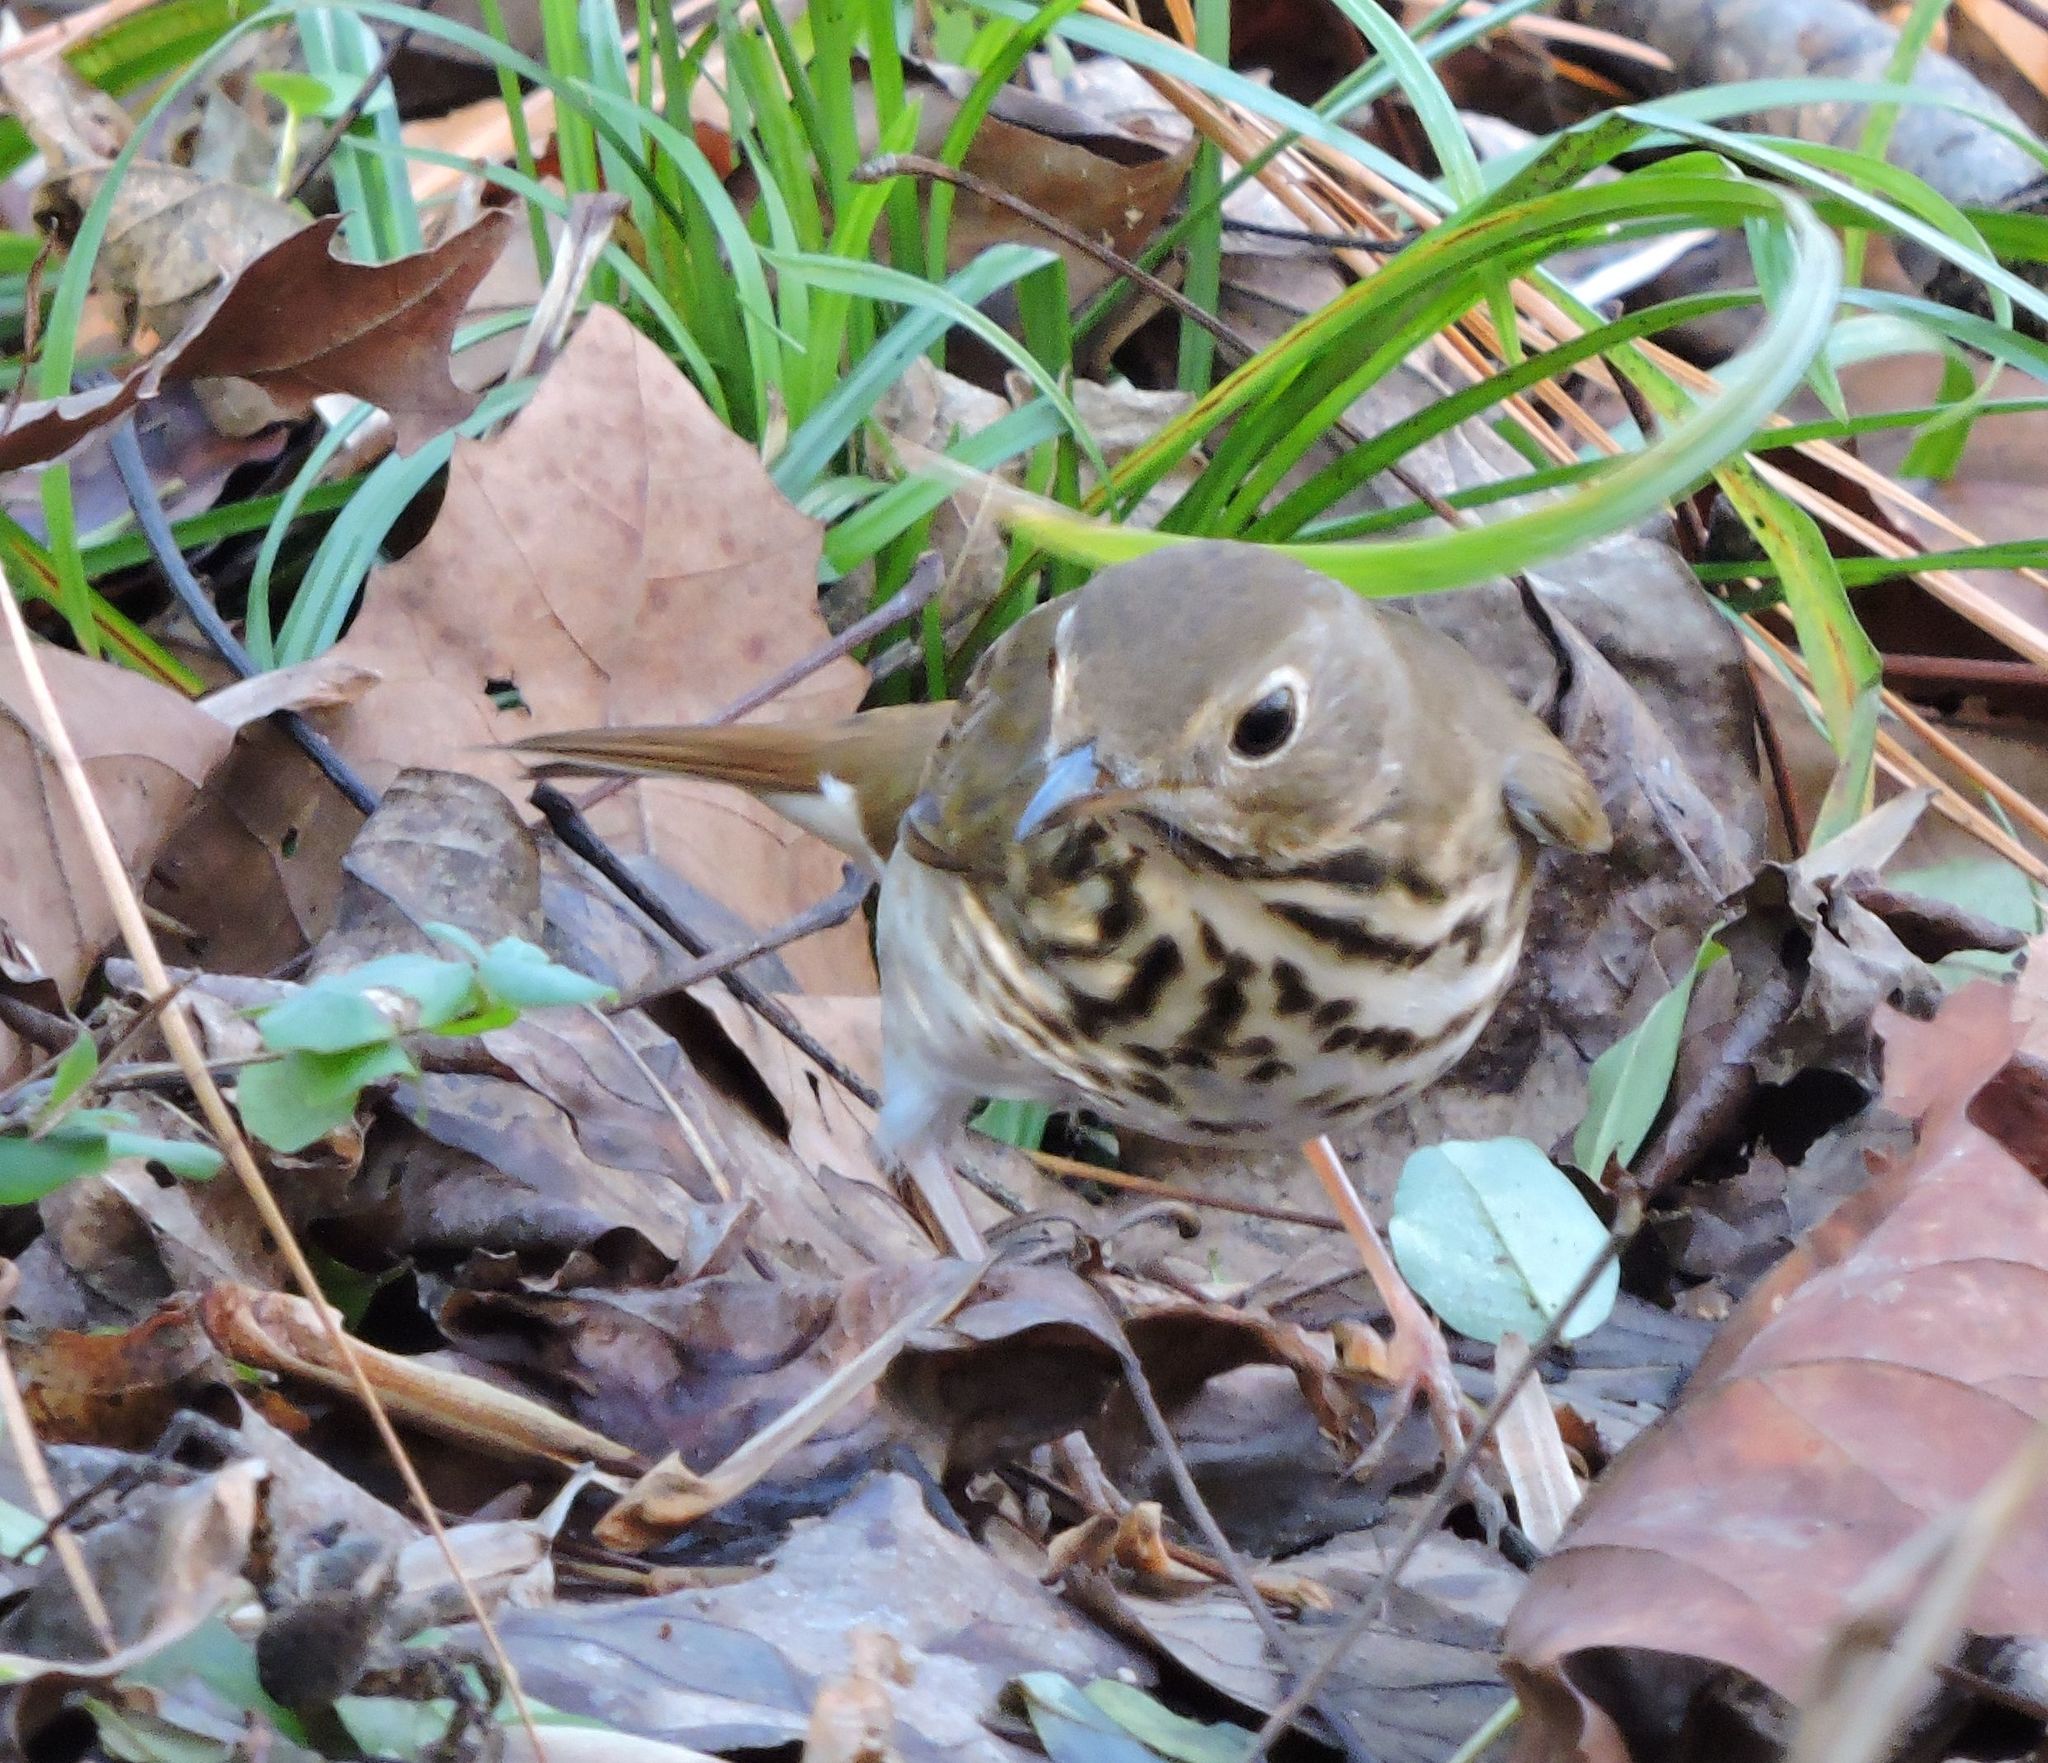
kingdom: Animalia
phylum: Chordata
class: Aves
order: Passeriformes
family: Turdidae
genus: Catharus
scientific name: Catharus guttatus
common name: Hermit thrush
